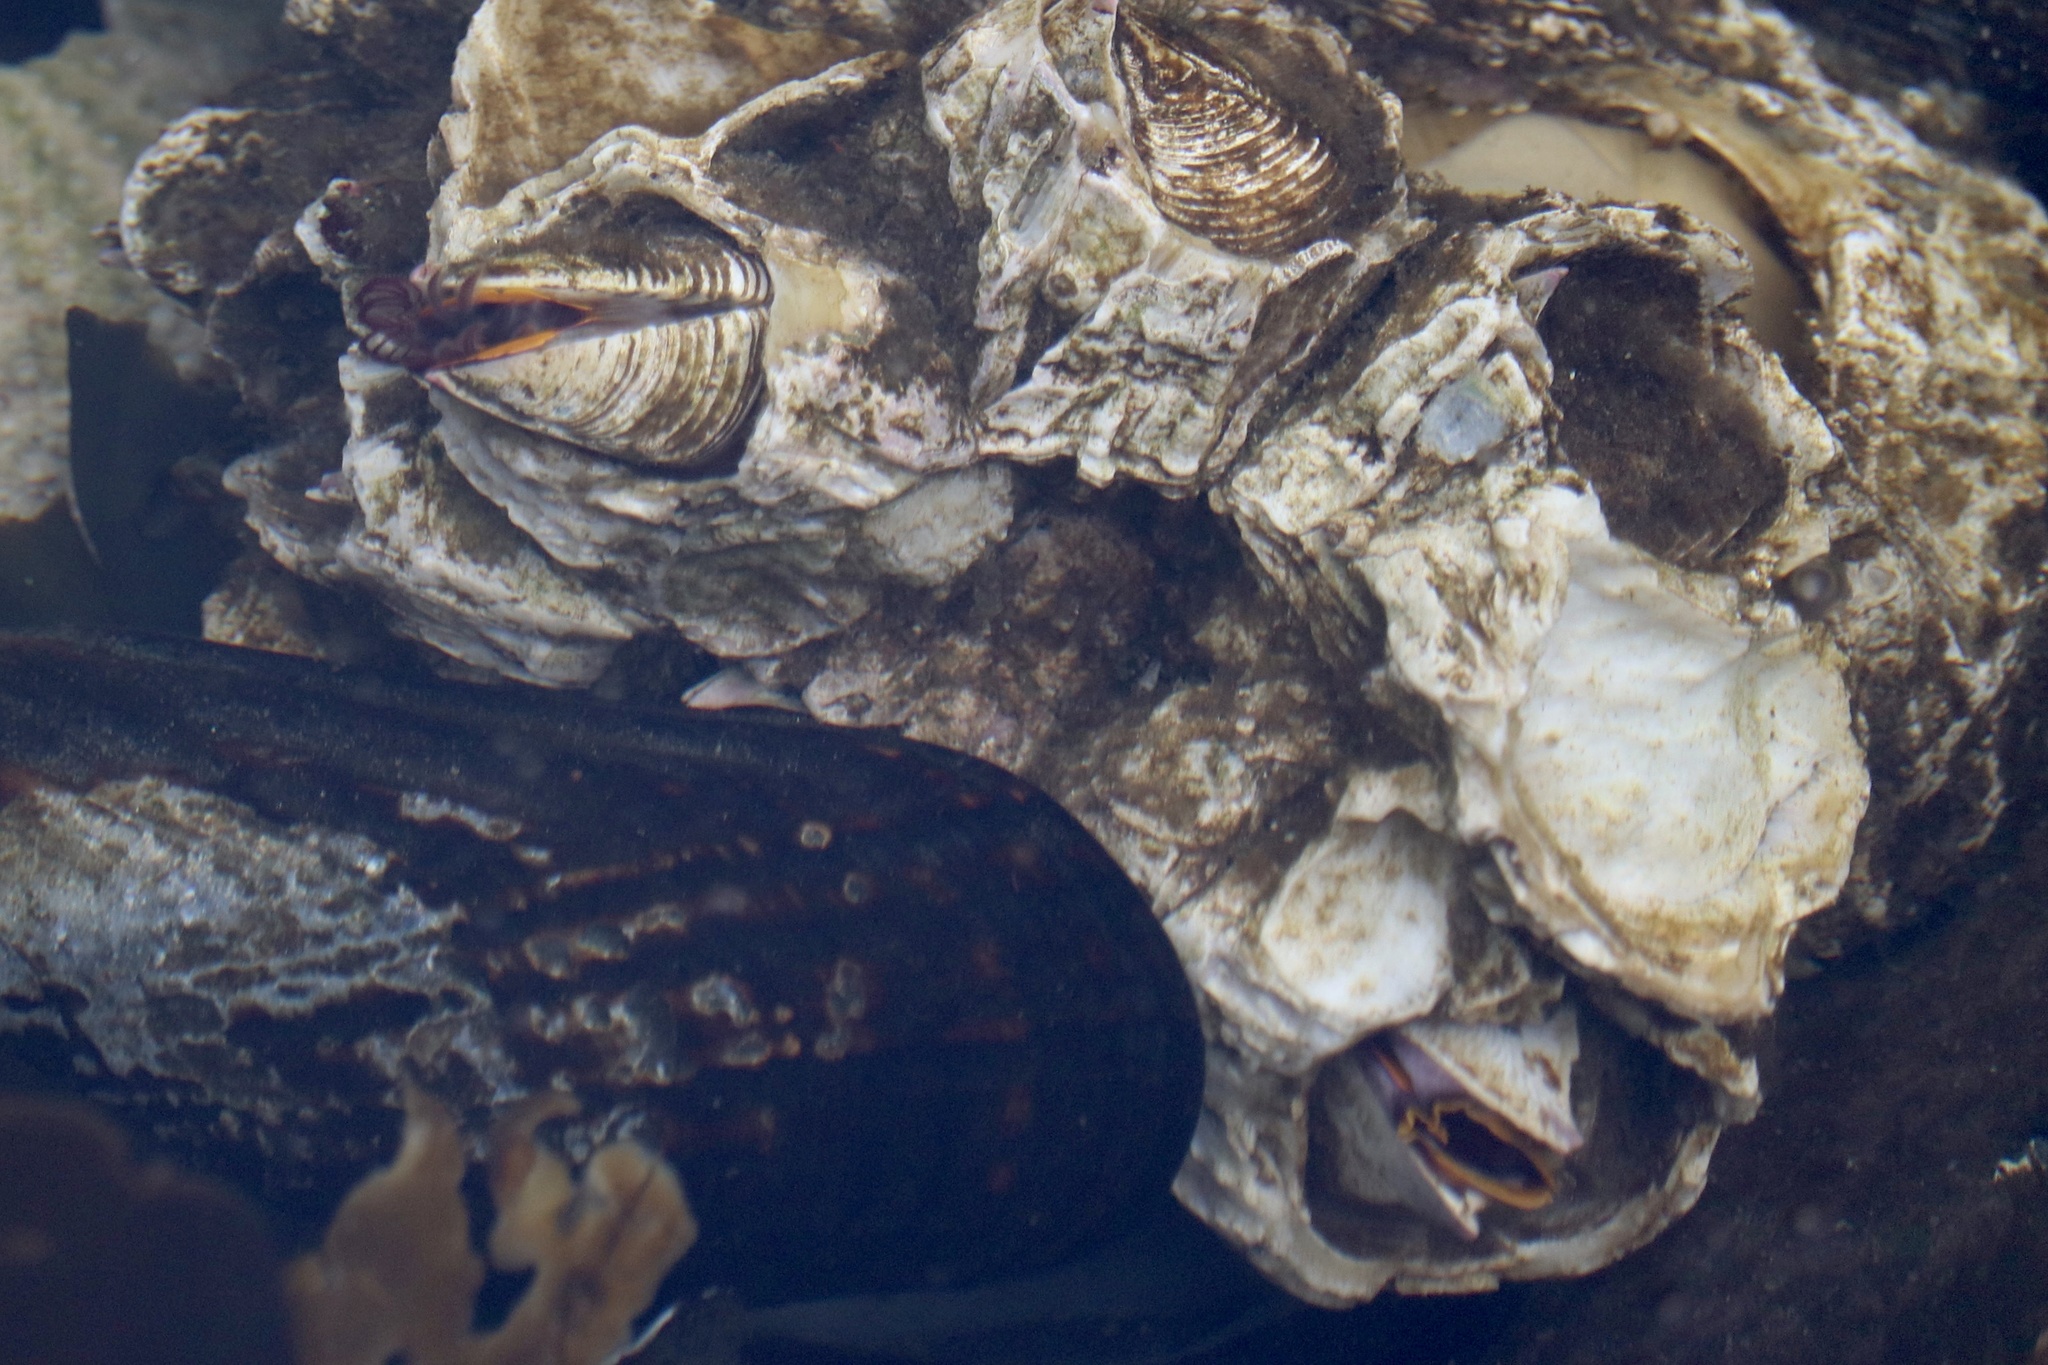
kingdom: Animalia
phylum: Arthropoda
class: Maxillopoda
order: Sessilia
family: Balanidae
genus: Balanus
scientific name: Balanus nubilus
